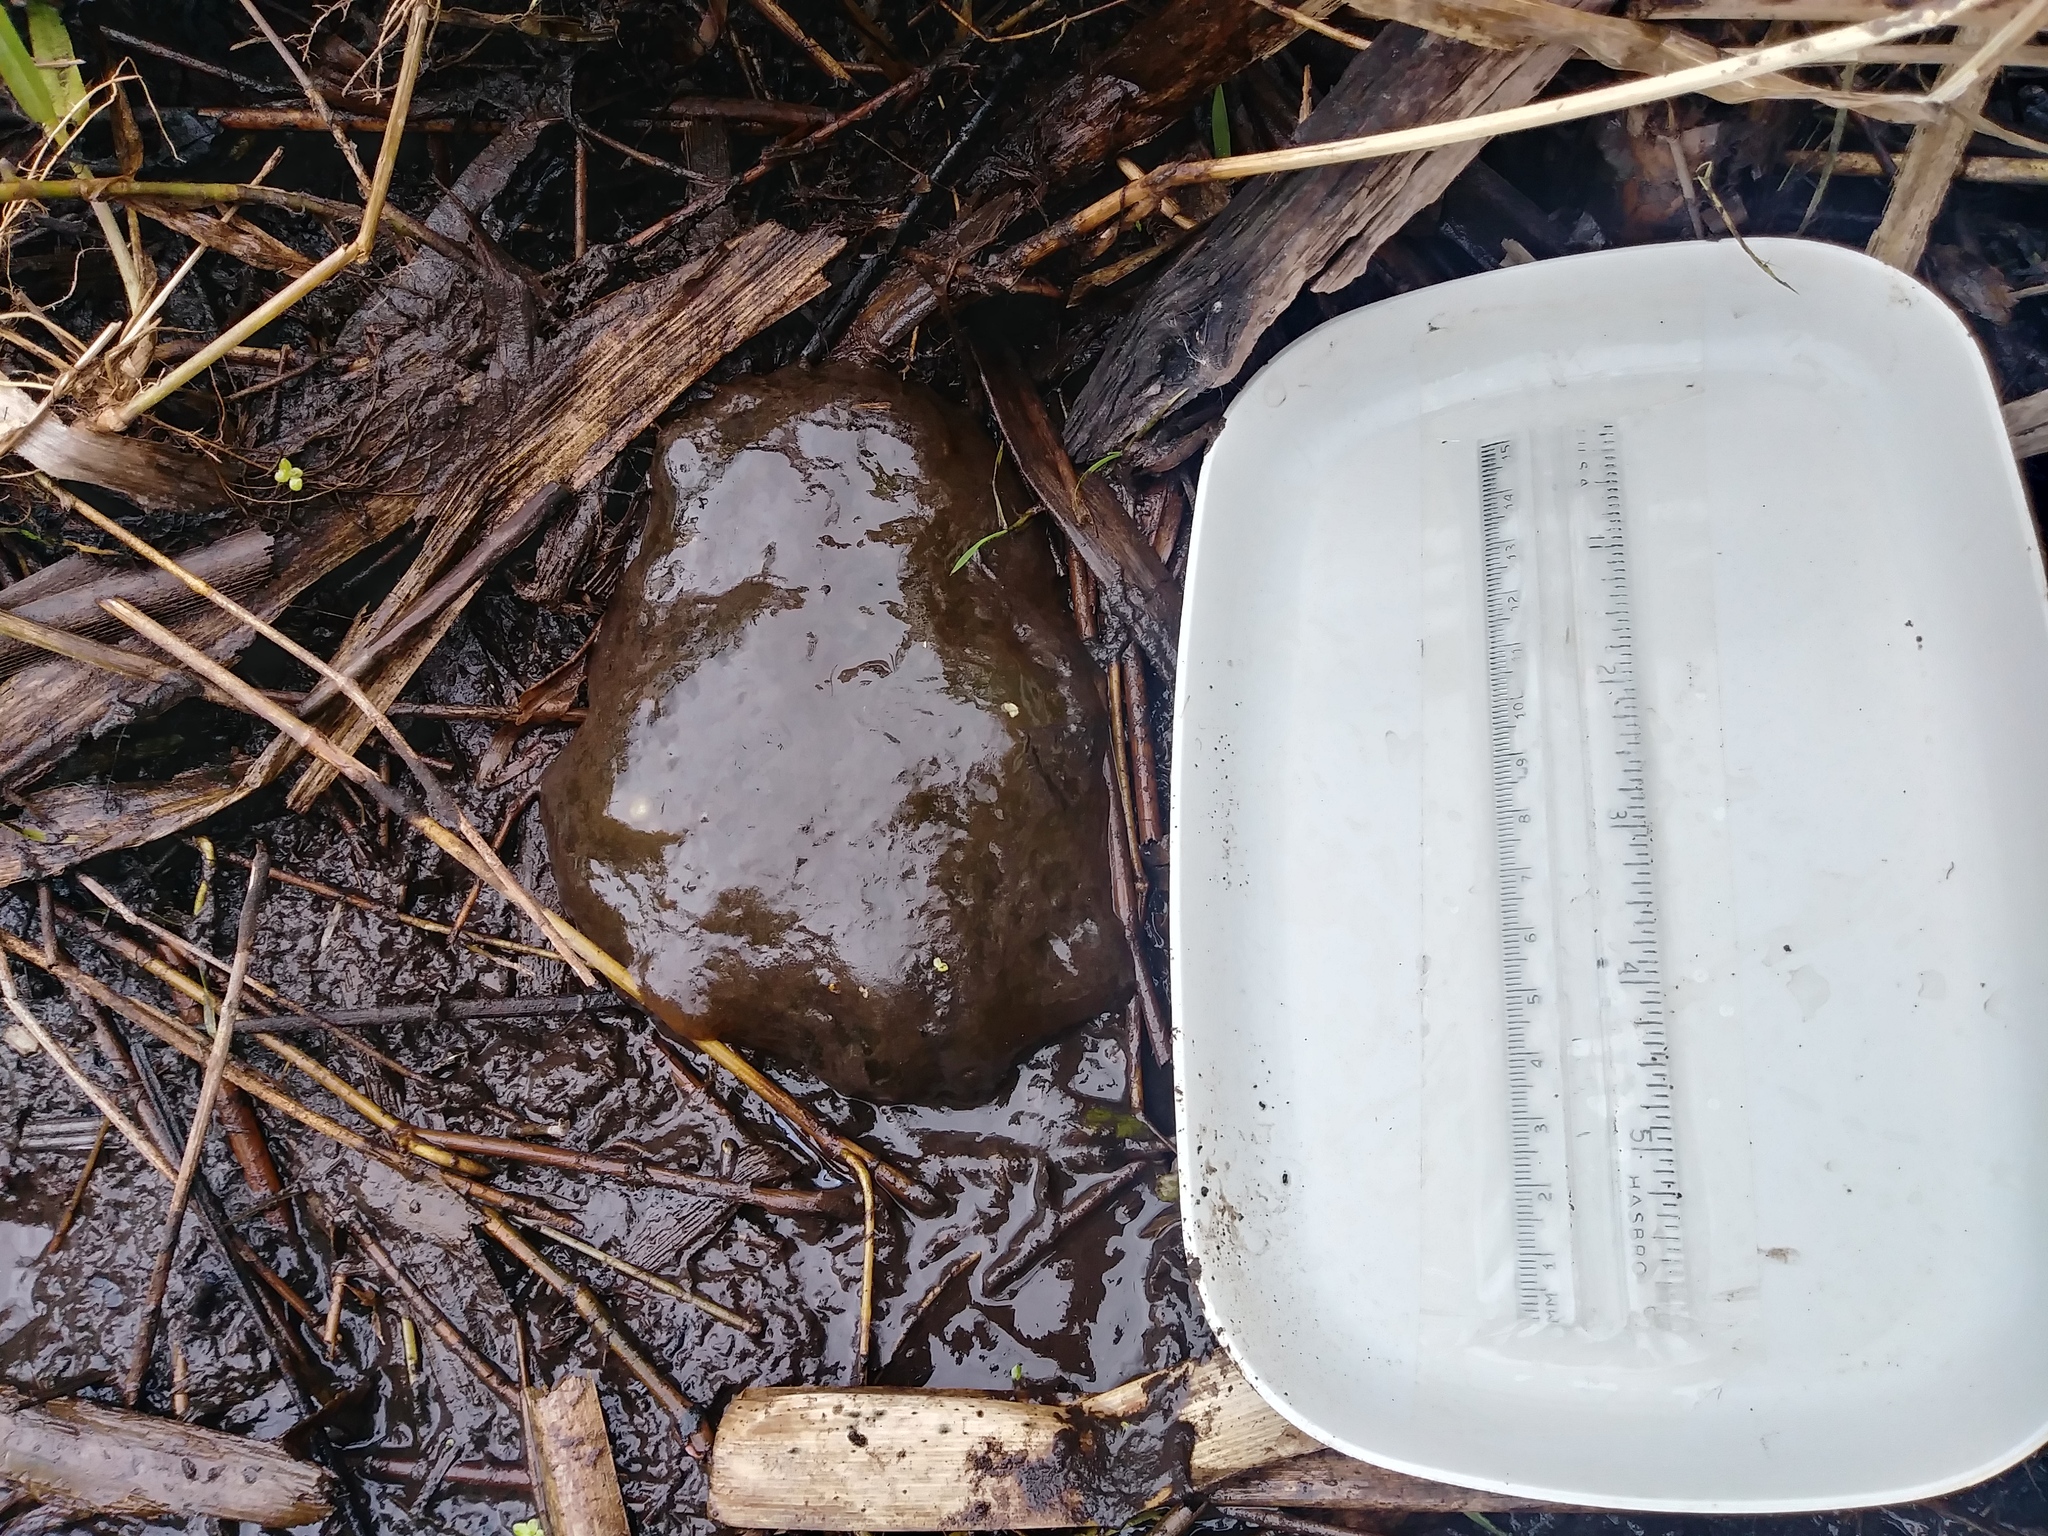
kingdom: Animalia
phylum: Chordata
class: Amphibia
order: Caudata
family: Ambystomatidae
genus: Ambystoma
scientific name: Ambystoma gracile
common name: Northwestern salamander
